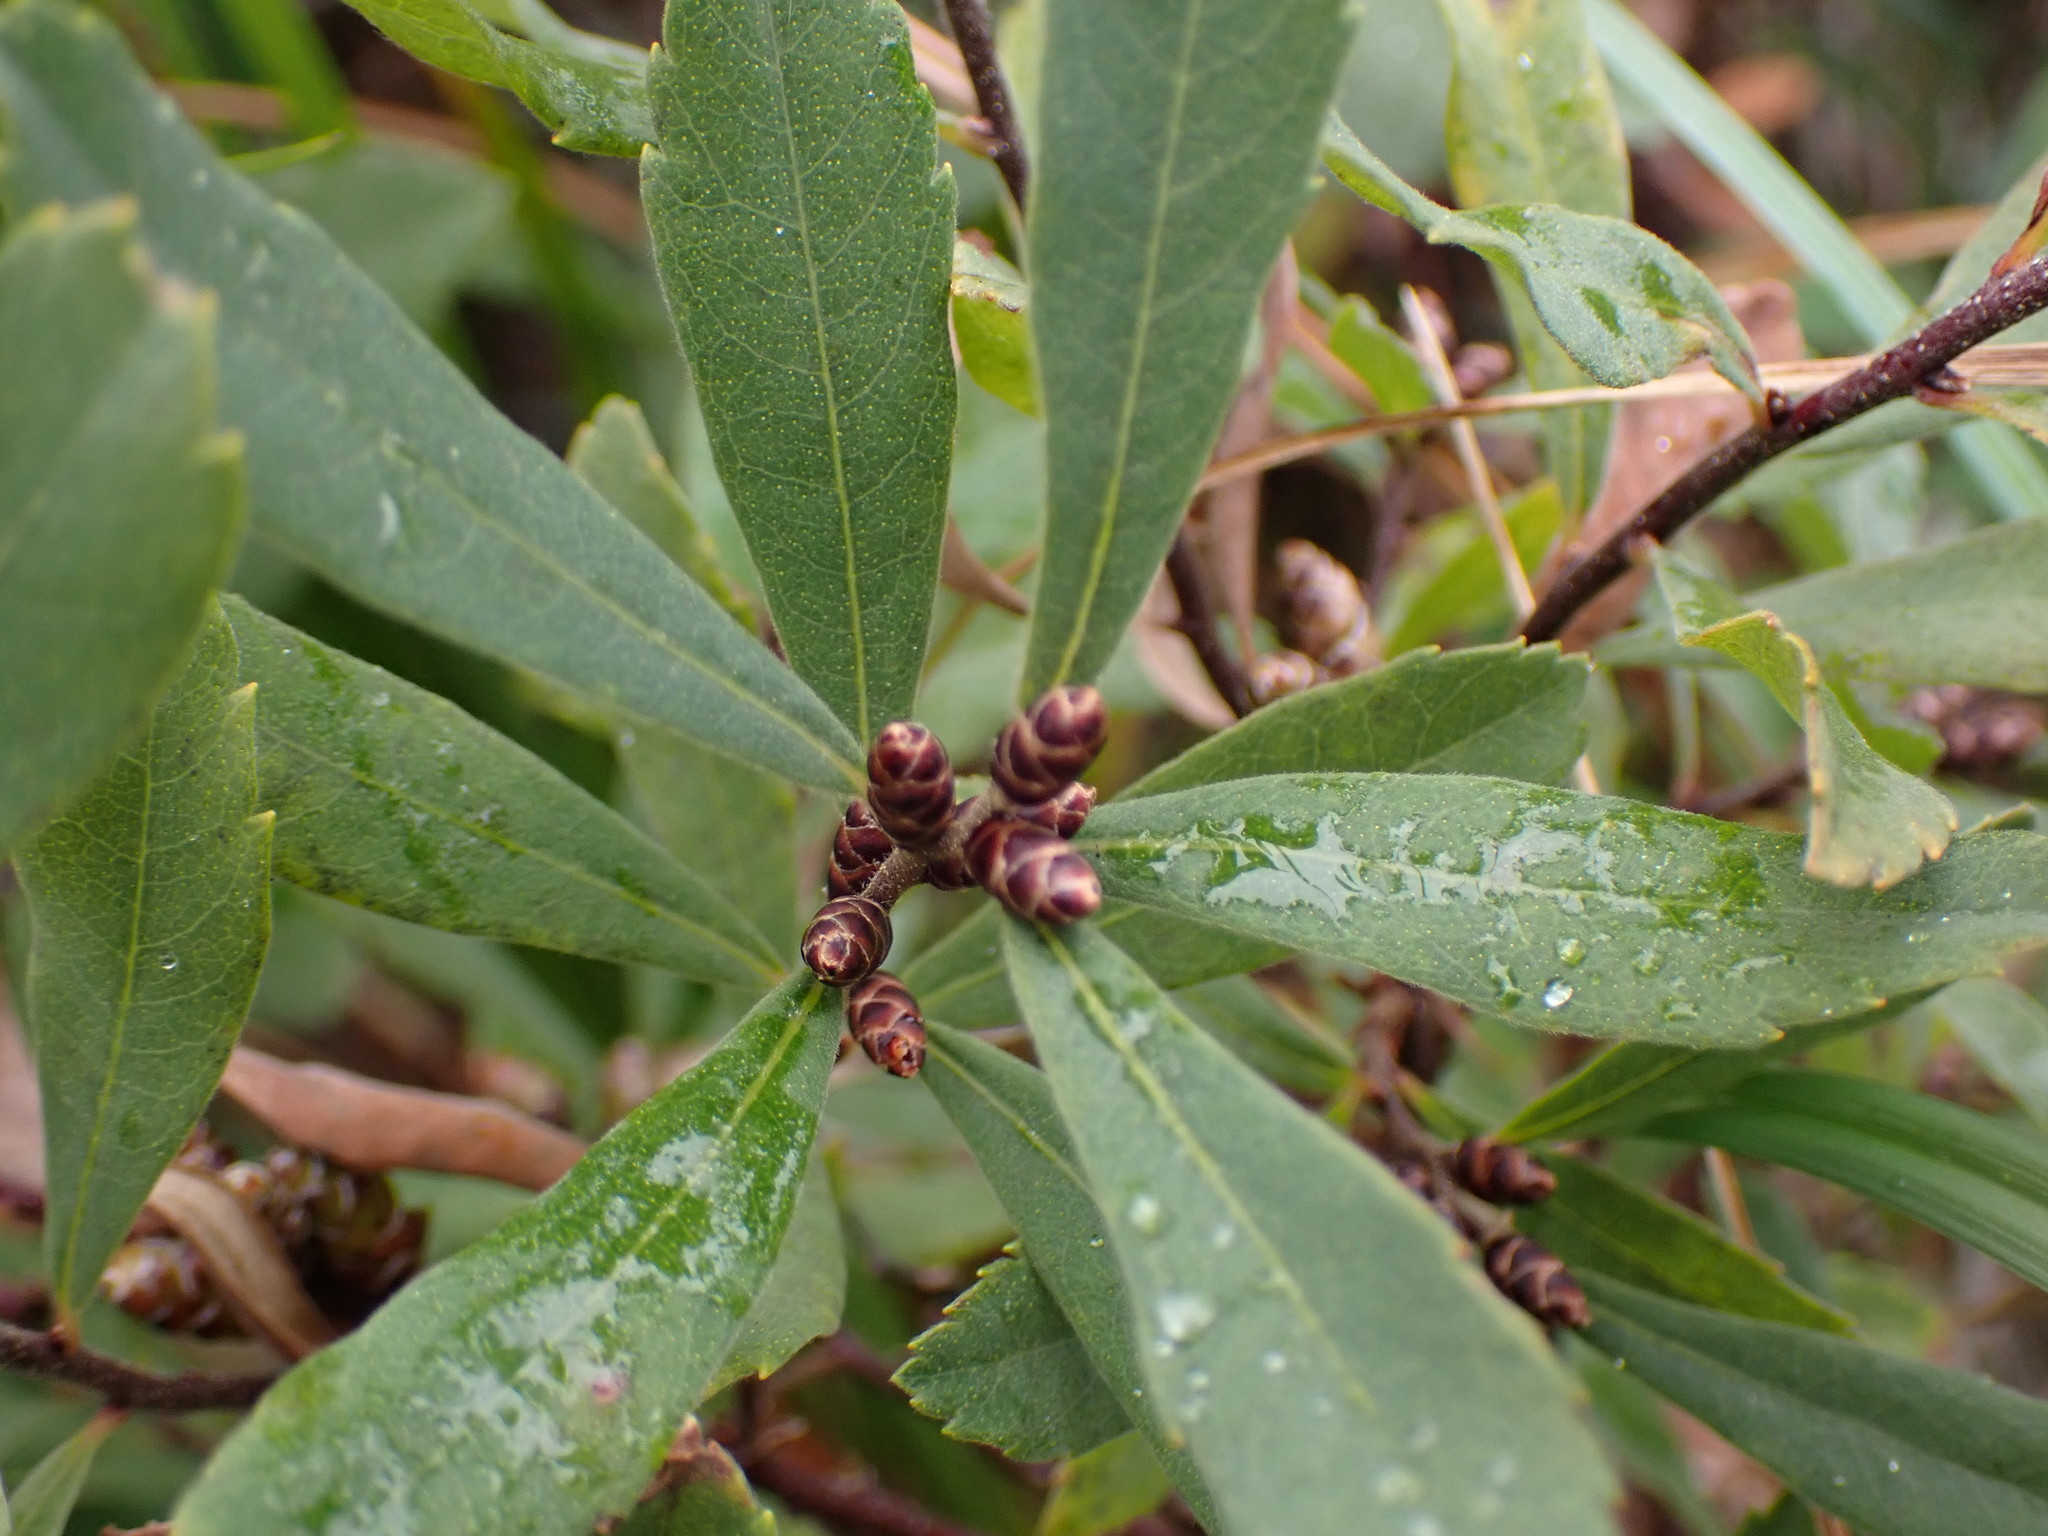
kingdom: Plantae
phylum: Tracheophyta
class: Magnoliopsida
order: Fagales
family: Myricaceae
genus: Myrica
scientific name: Myrica gale
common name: Sweet gale
